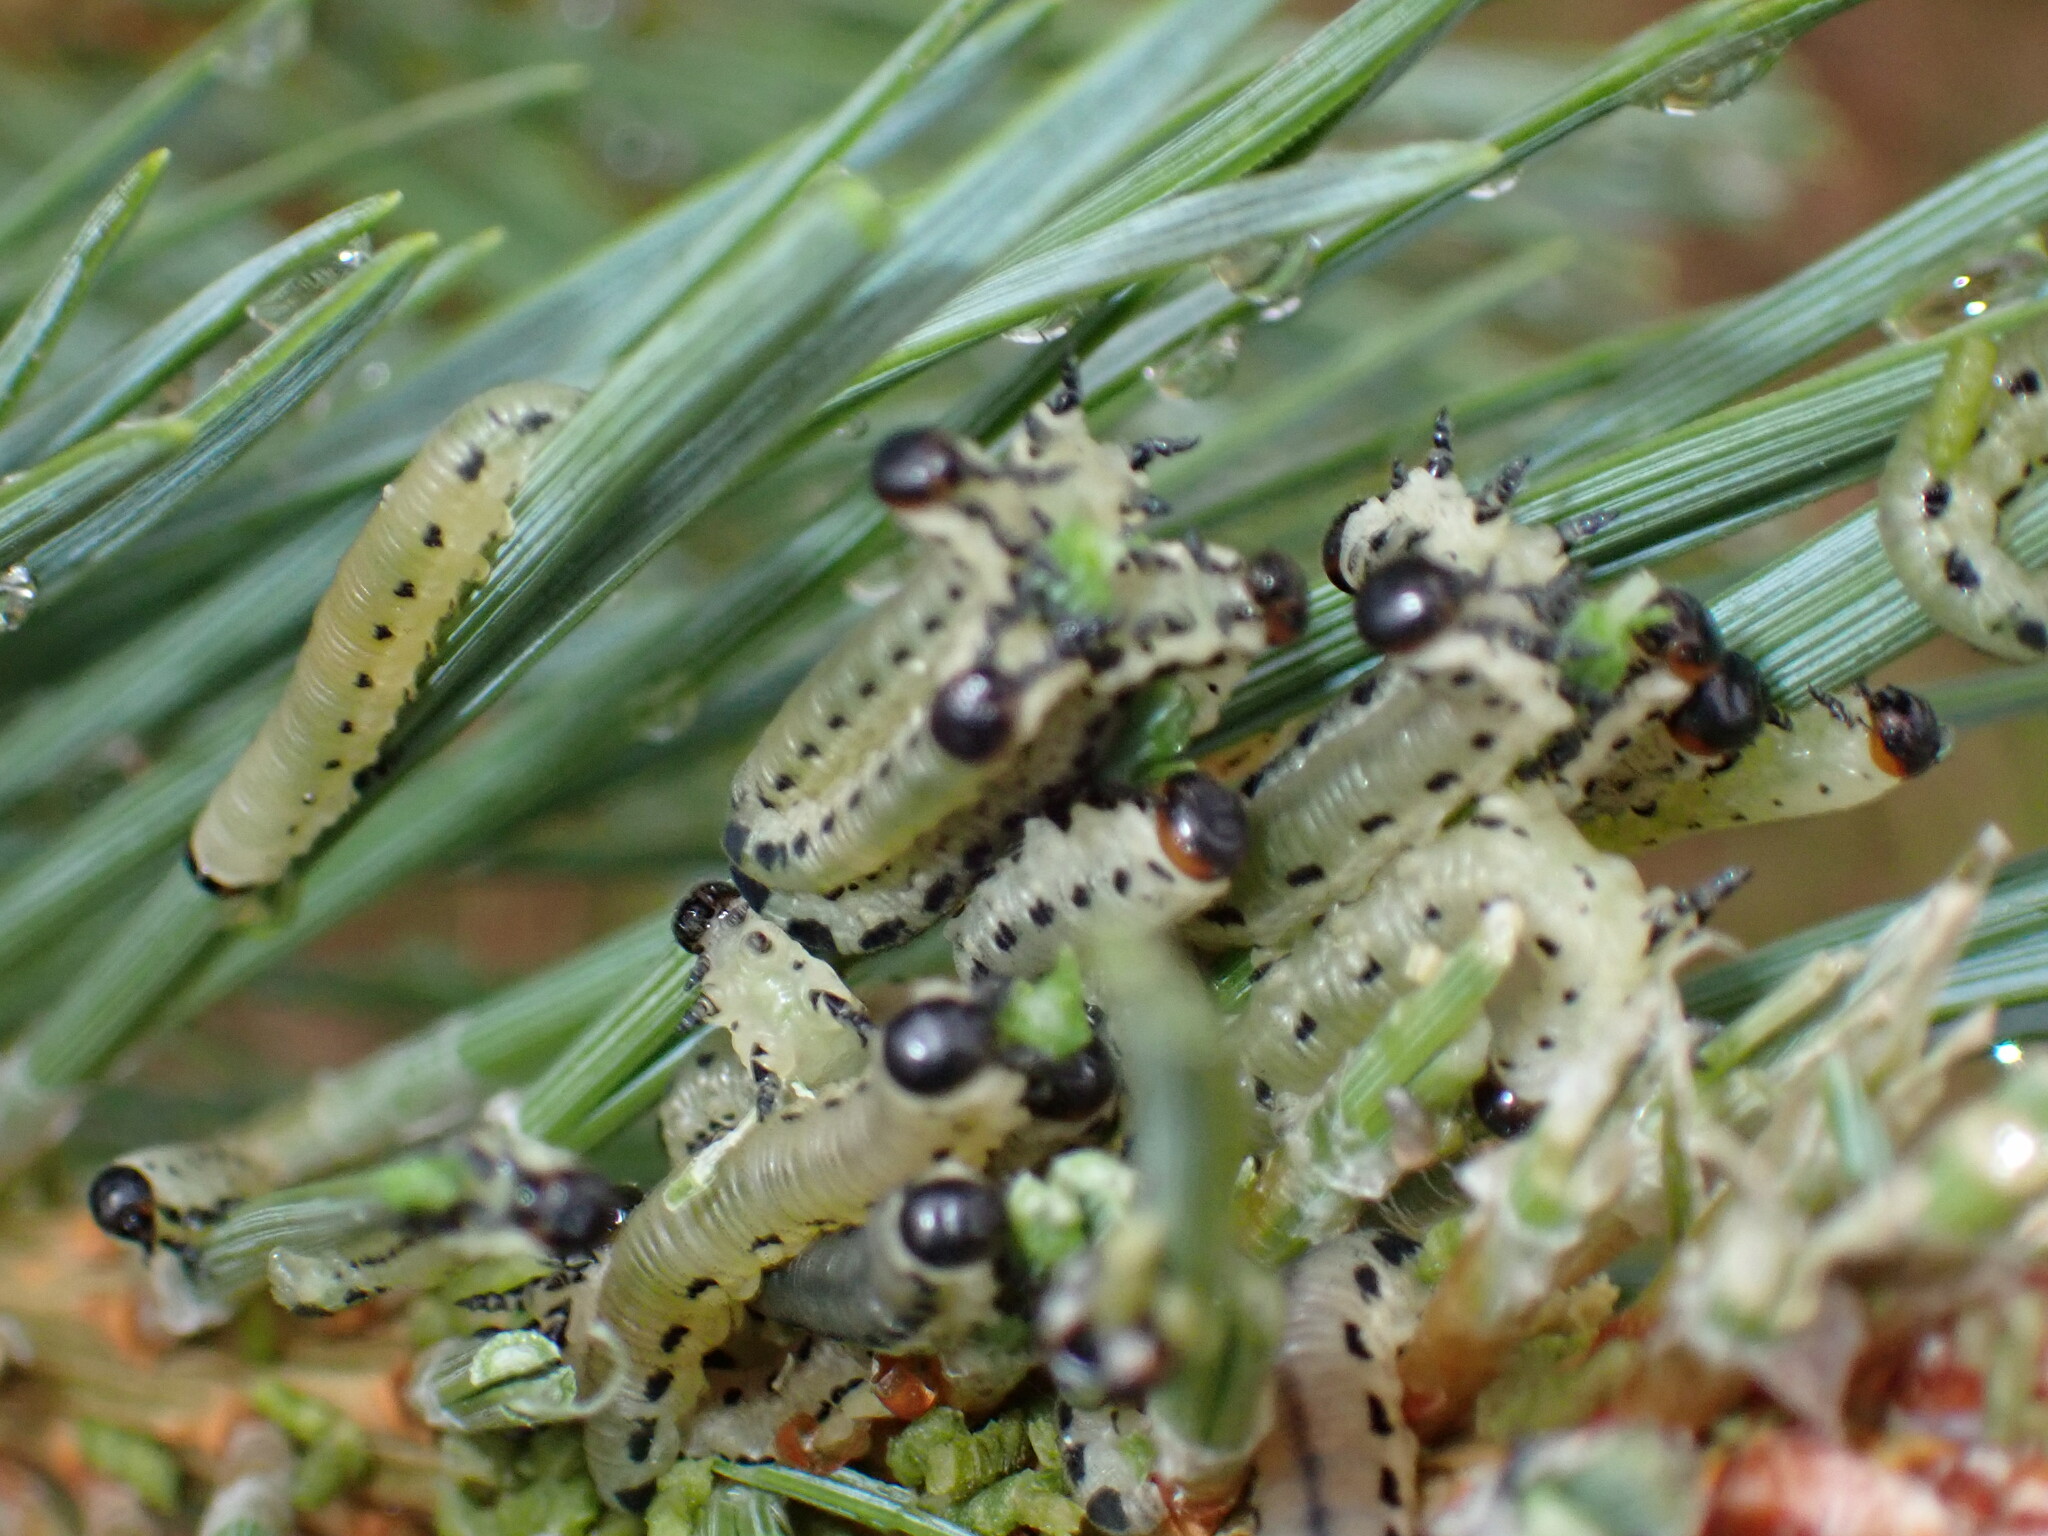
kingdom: Animalia
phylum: Arthropoda
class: Insecta
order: Hymenoptera
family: Diprionidae
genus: Diprion
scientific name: Diprion pini
